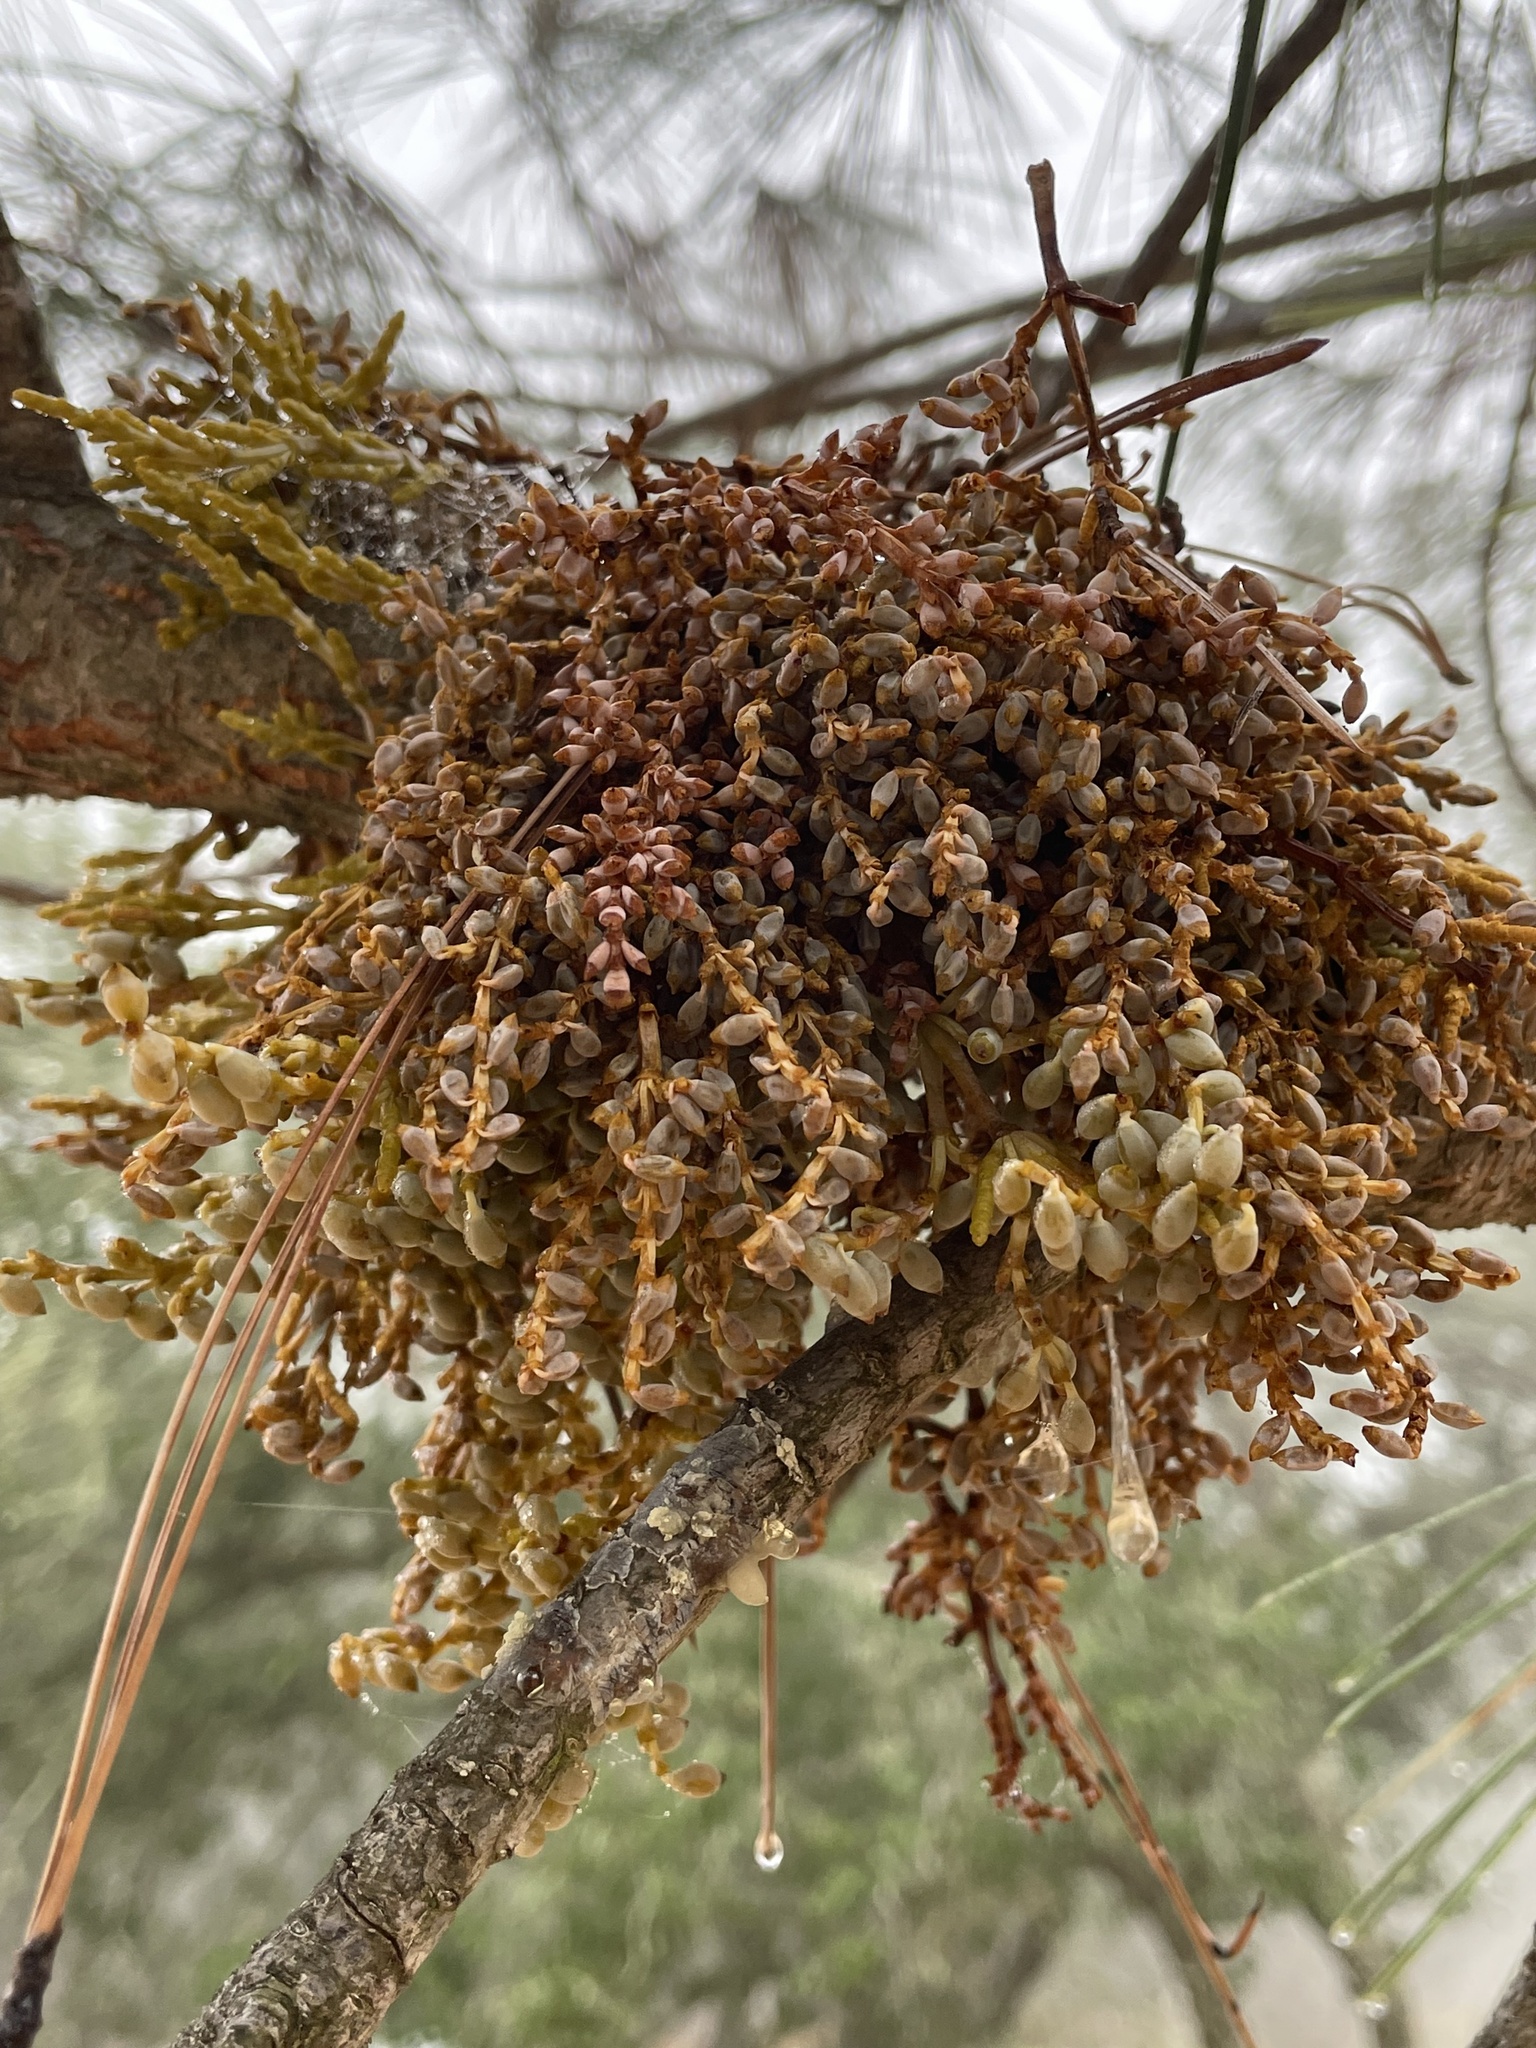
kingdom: Plantae
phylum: Tracheophyta
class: Magnoliopsida
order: Santalales
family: Viscaceae
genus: Arceuthobium
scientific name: Arceuthobium campylopodum
